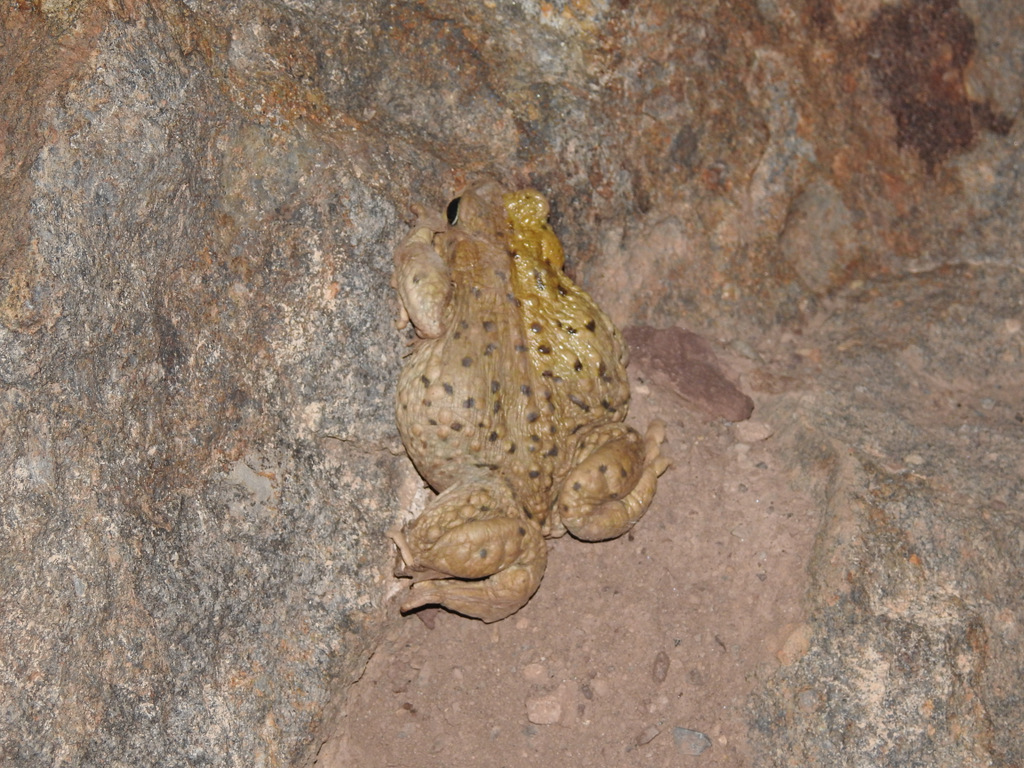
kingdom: Animalia
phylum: Chordata
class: Amphibia
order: Anura
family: Bufonidae
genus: Rhinella
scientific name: Rhinella spinulosa
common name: Warty toad
